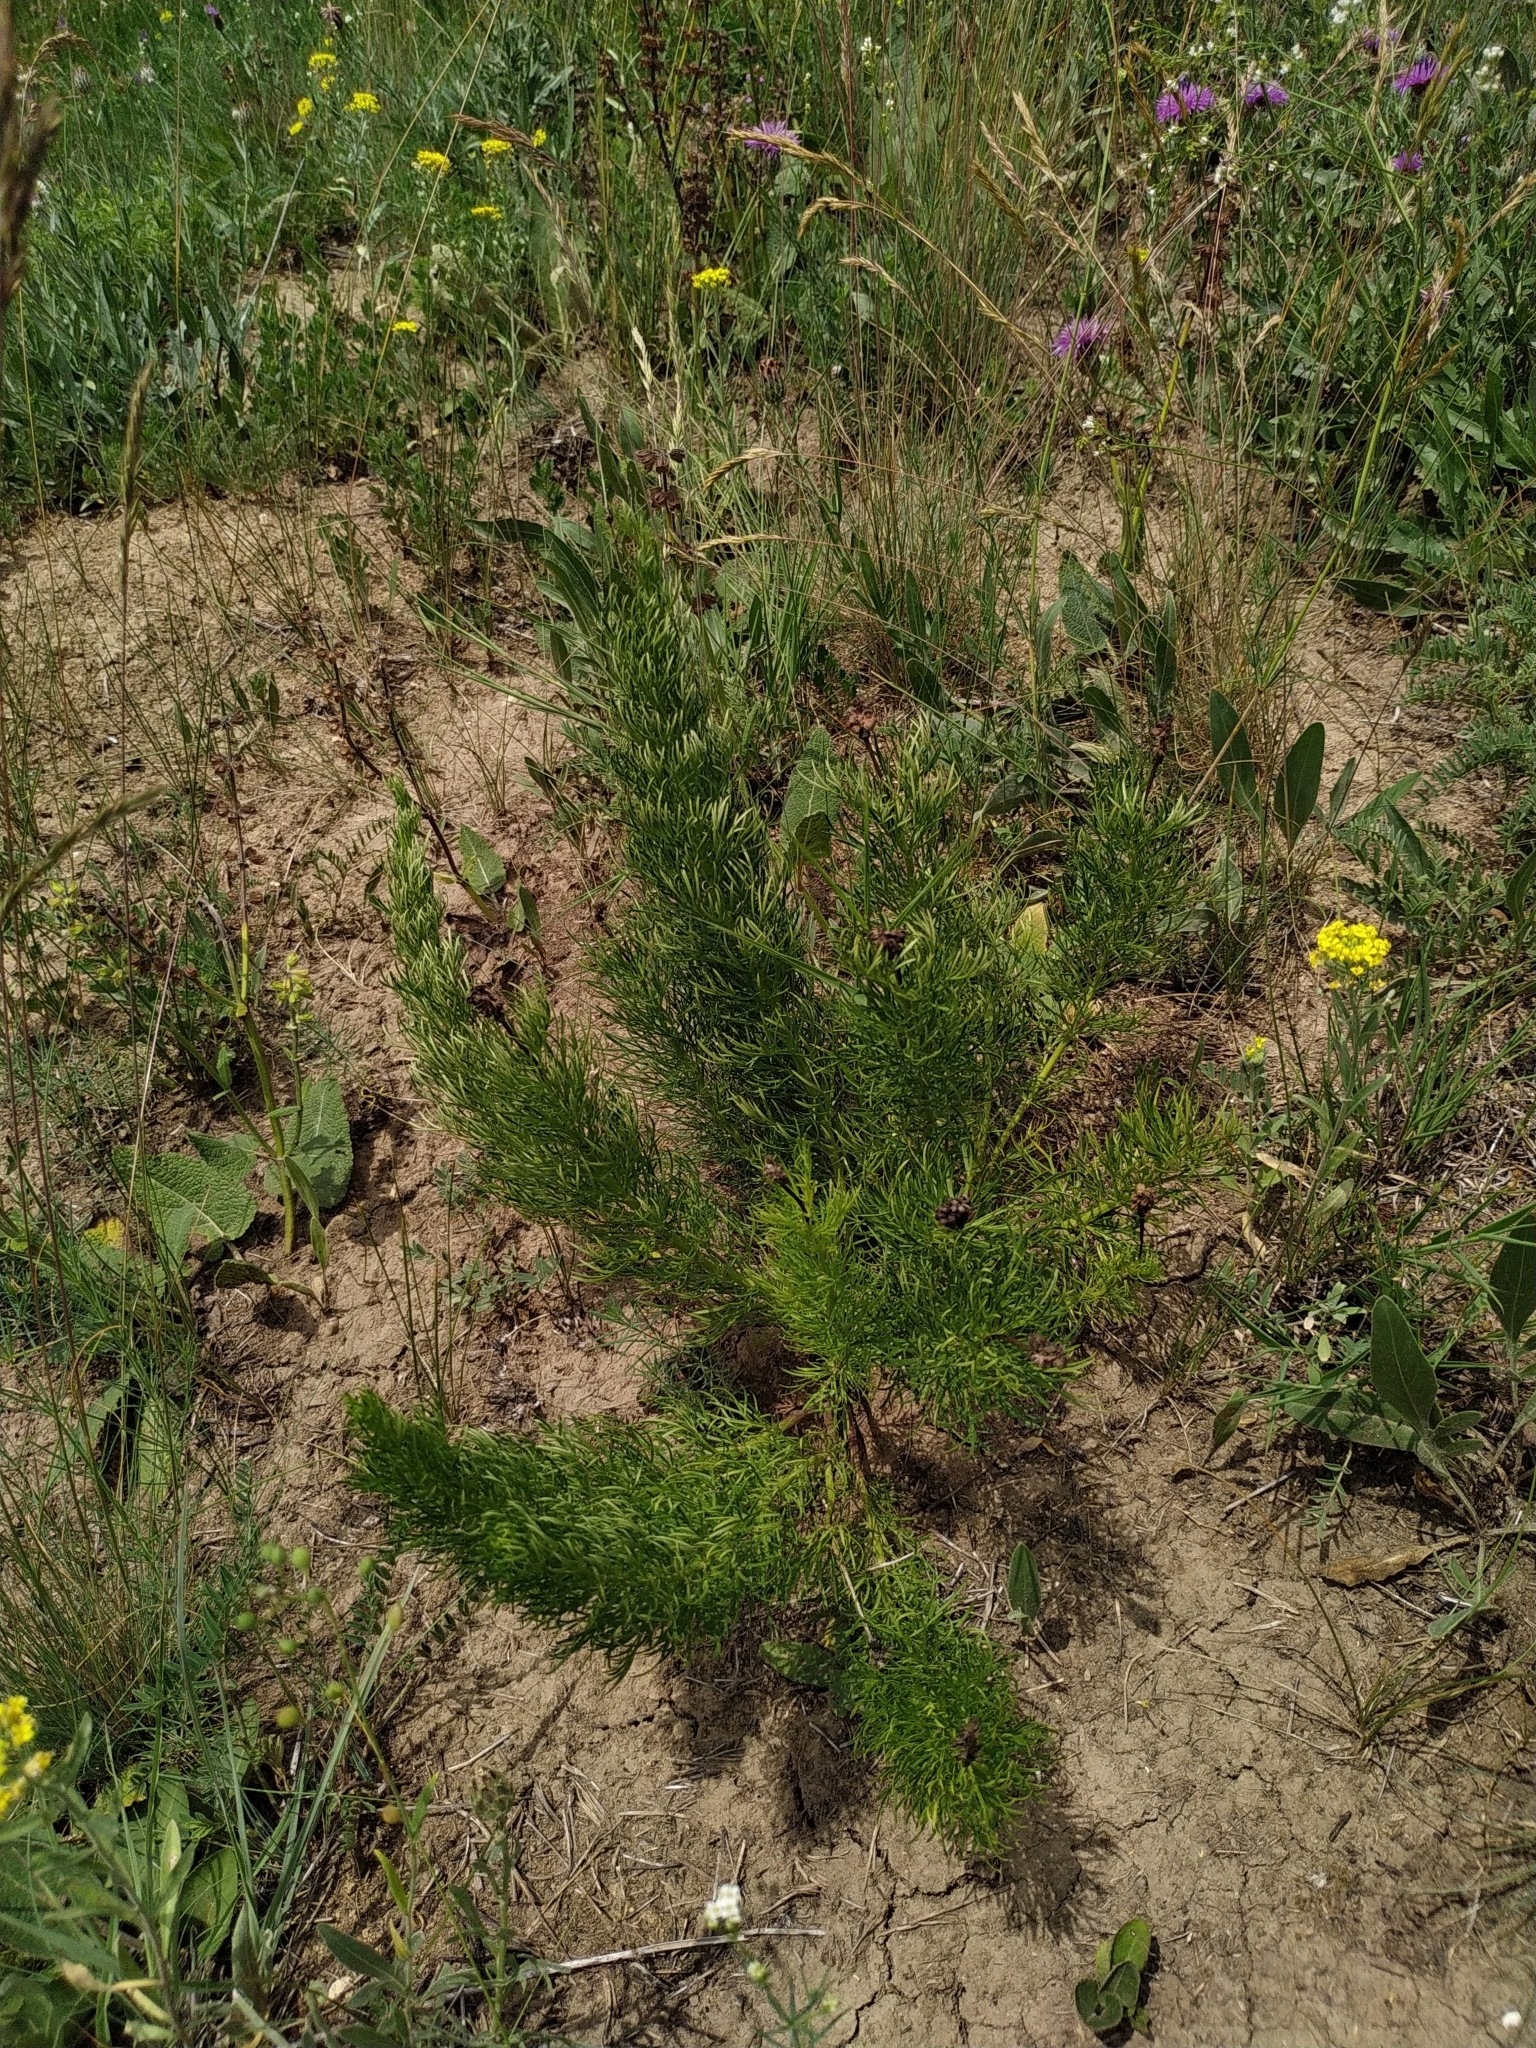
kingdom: Plantae
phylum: Tracheophyta
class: Magnoliopsida
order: Ranunculales
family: Ranunculaceae
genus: Adonis
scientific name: Adonis vernalis
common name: Yellow pheasants-eye
